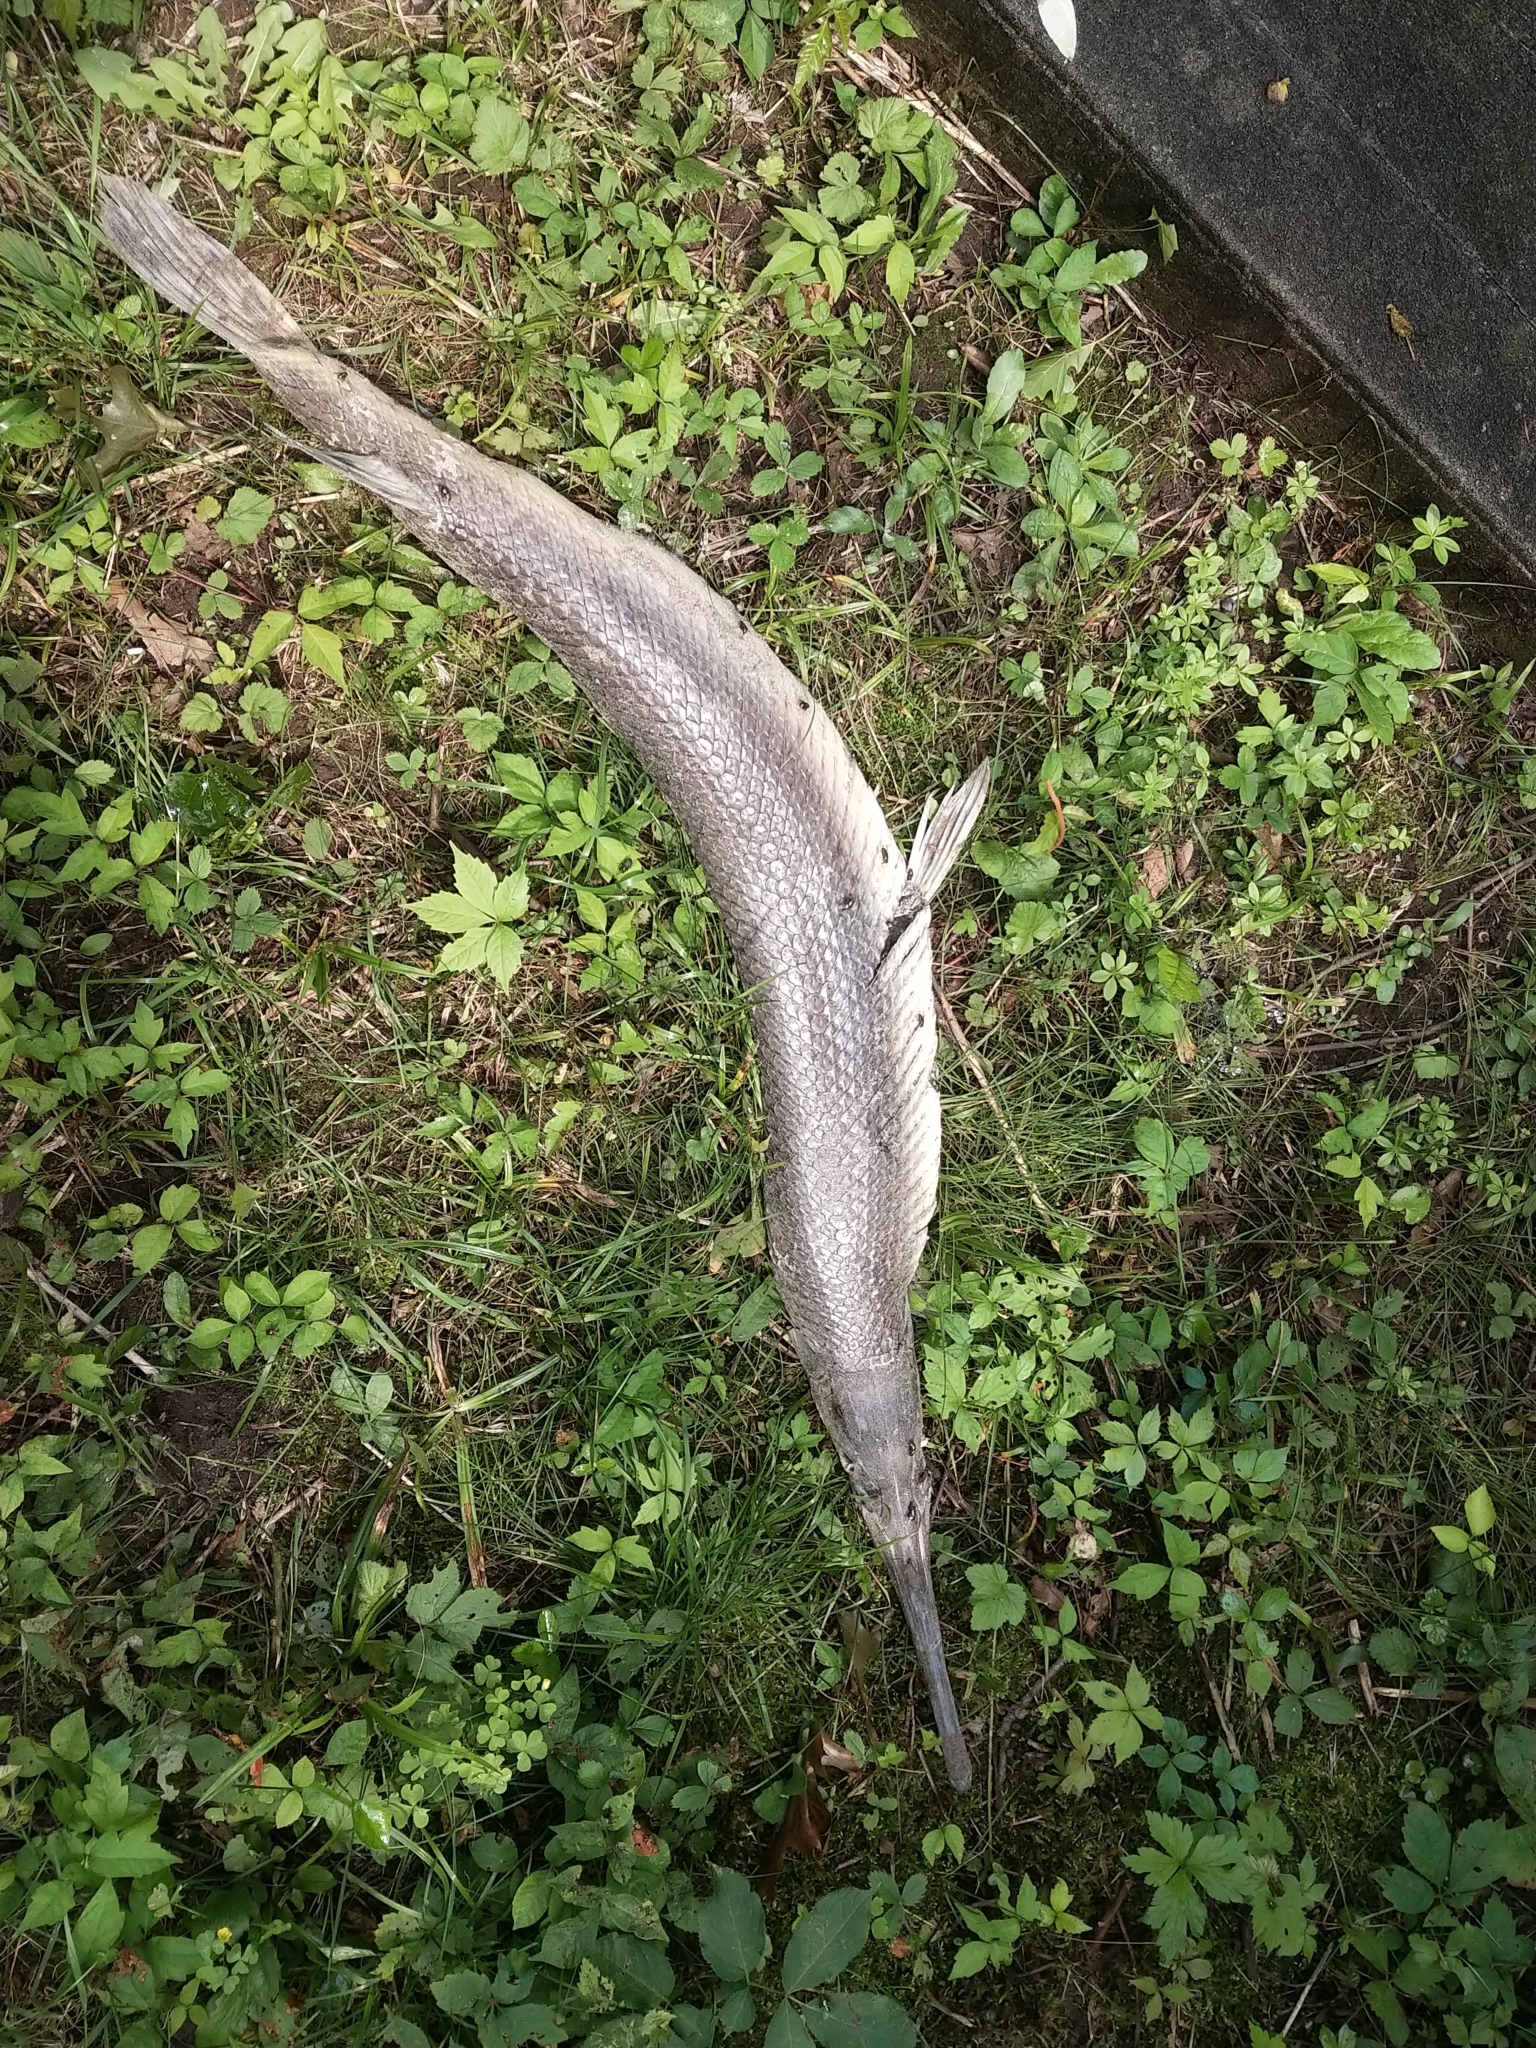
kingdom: Animalia
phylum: Chordata
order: Lepisosteiformes
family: Lepisosteidae
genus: Lepisosteus
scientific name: Lepisosteus osseus
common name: Longnose gar
